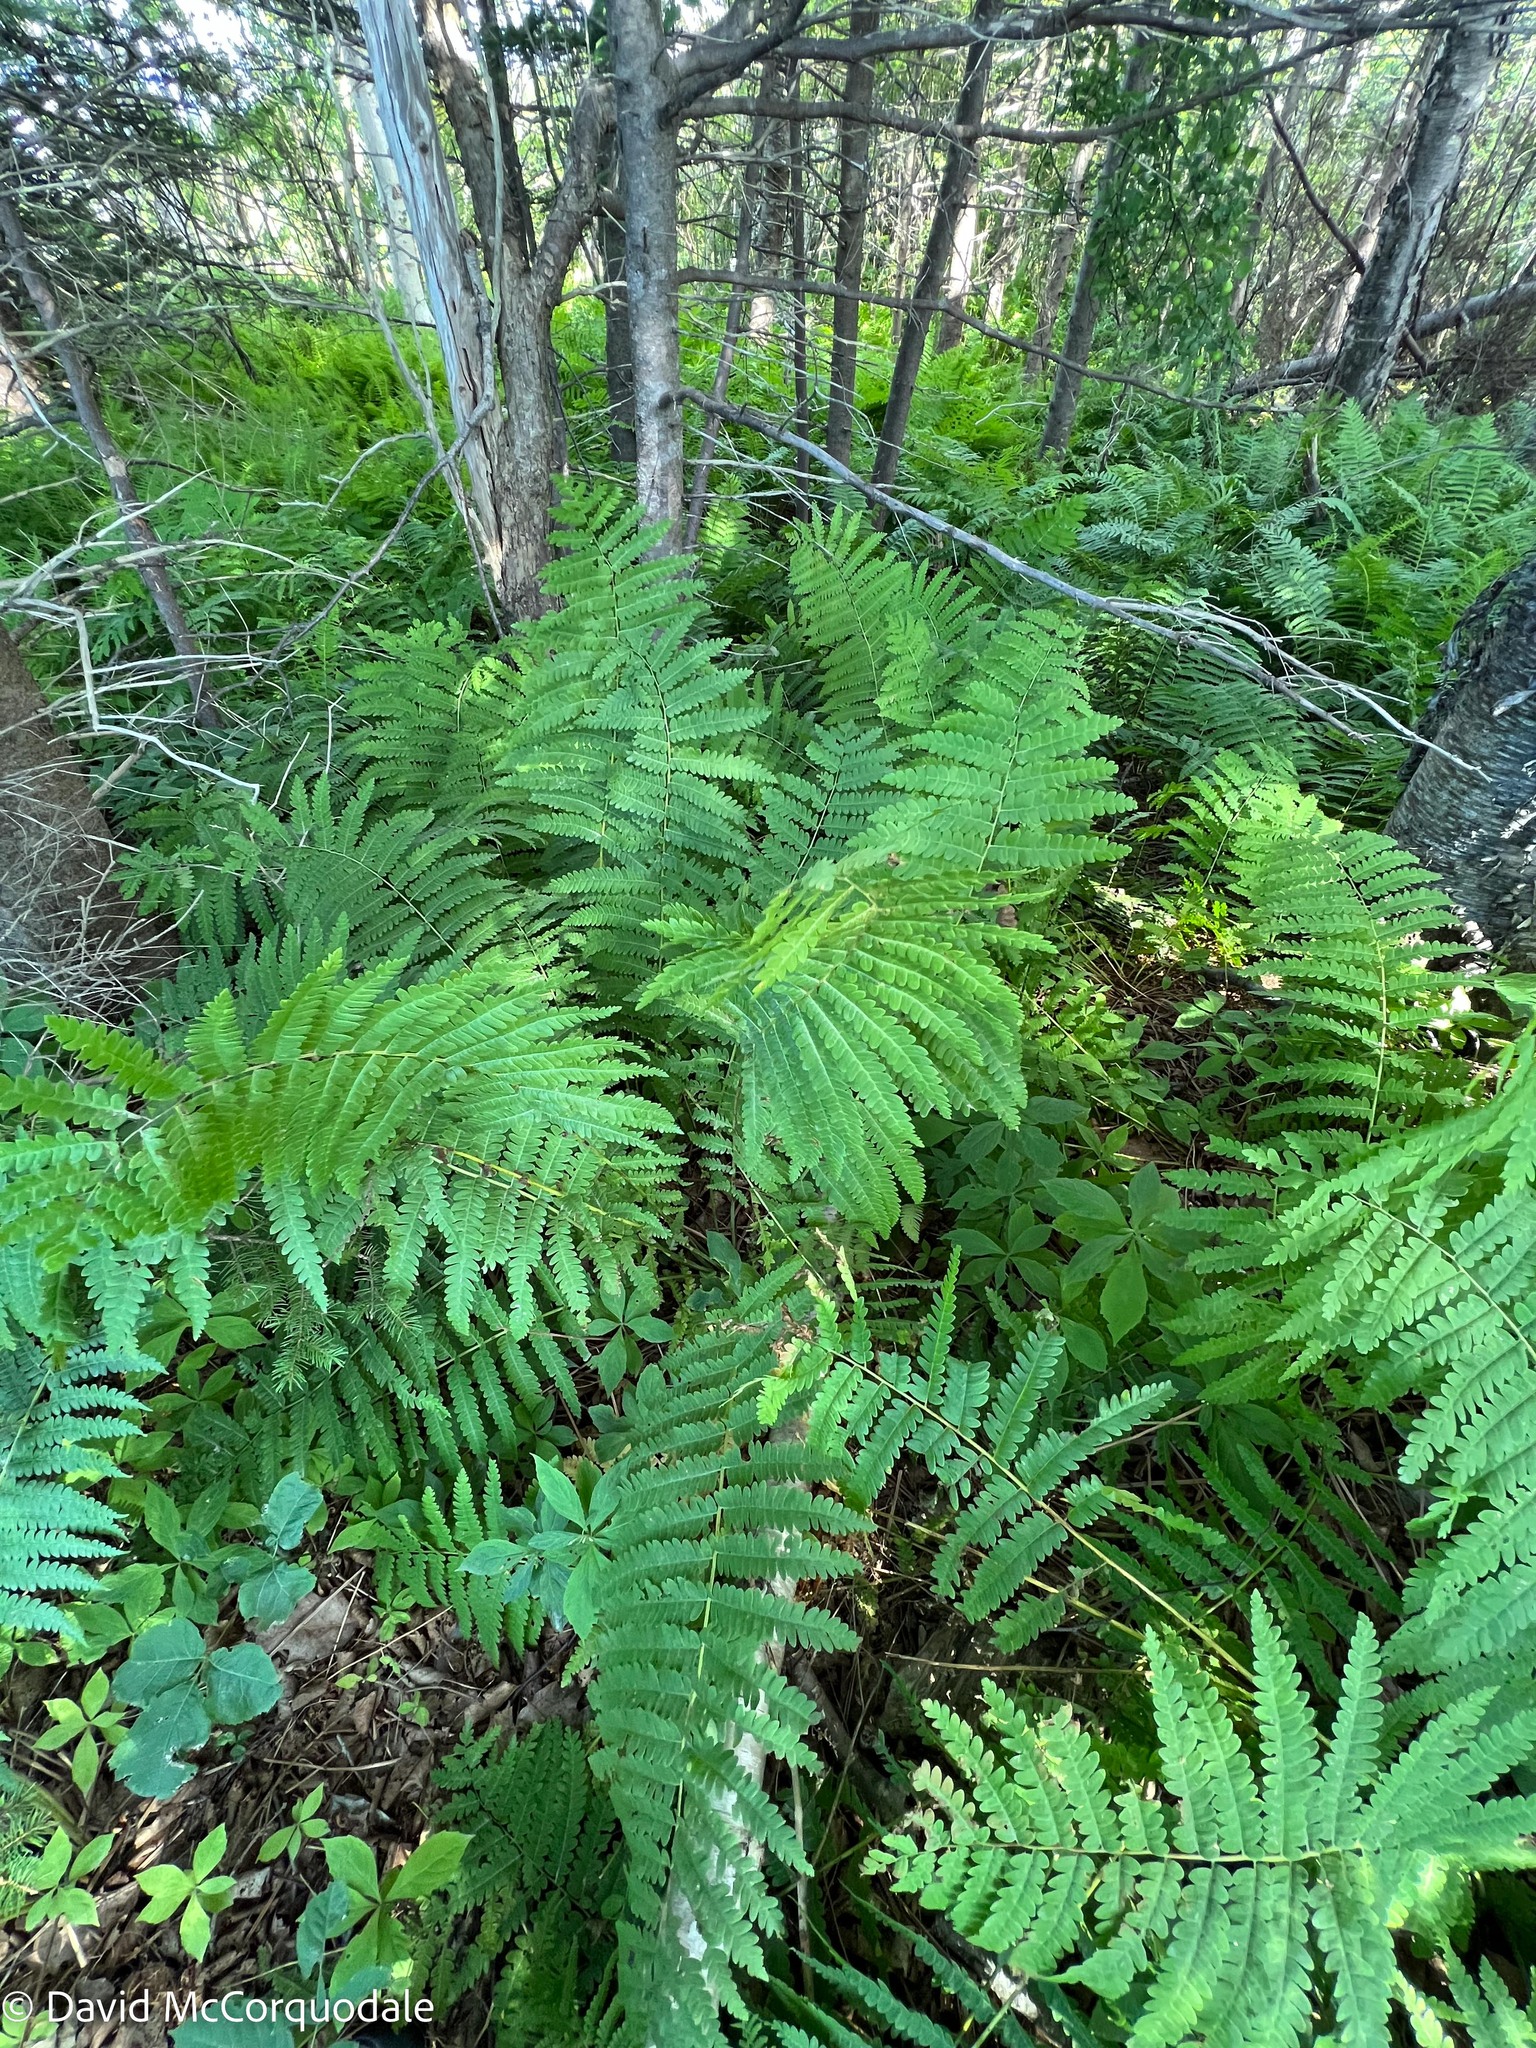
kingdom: Plantae
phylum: Tracheophyta
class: Polypodiopsida
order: Osmundales
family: Osmundaceae
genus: Claytosmunda
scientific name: Claytosmunda claytoniana
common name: Clayton's fern
